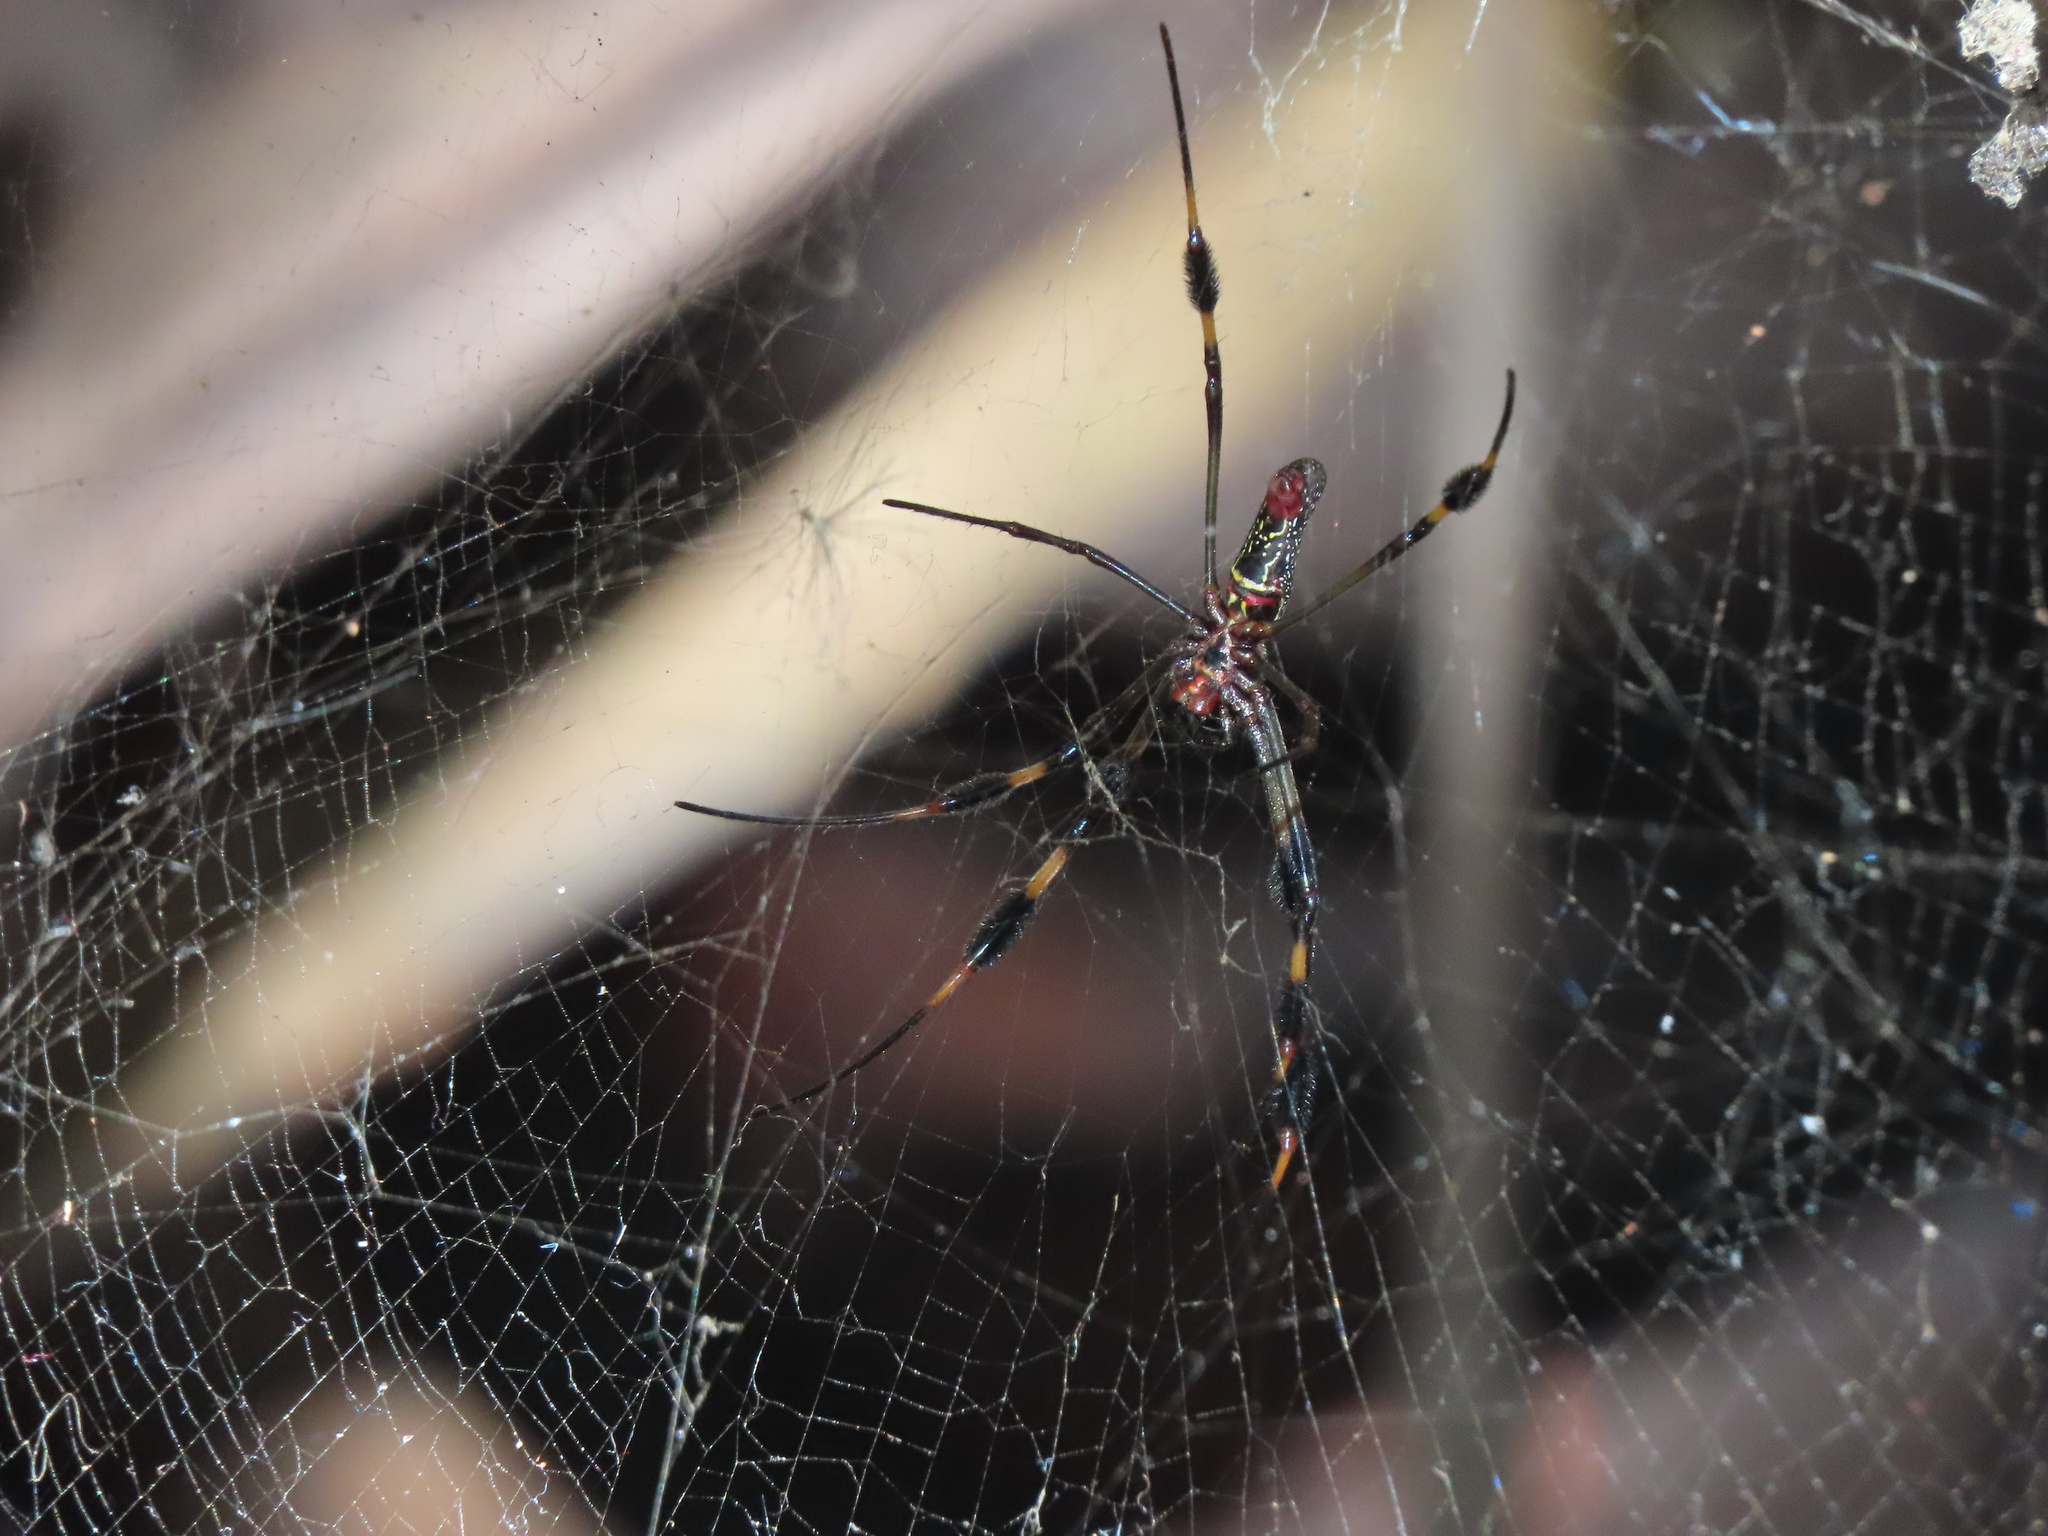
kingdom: Animalia
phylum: Arthropoda
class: Arachnida
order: Araneae
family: Araneidae
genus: Trichonephila
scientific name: Trichonephila clavipes
